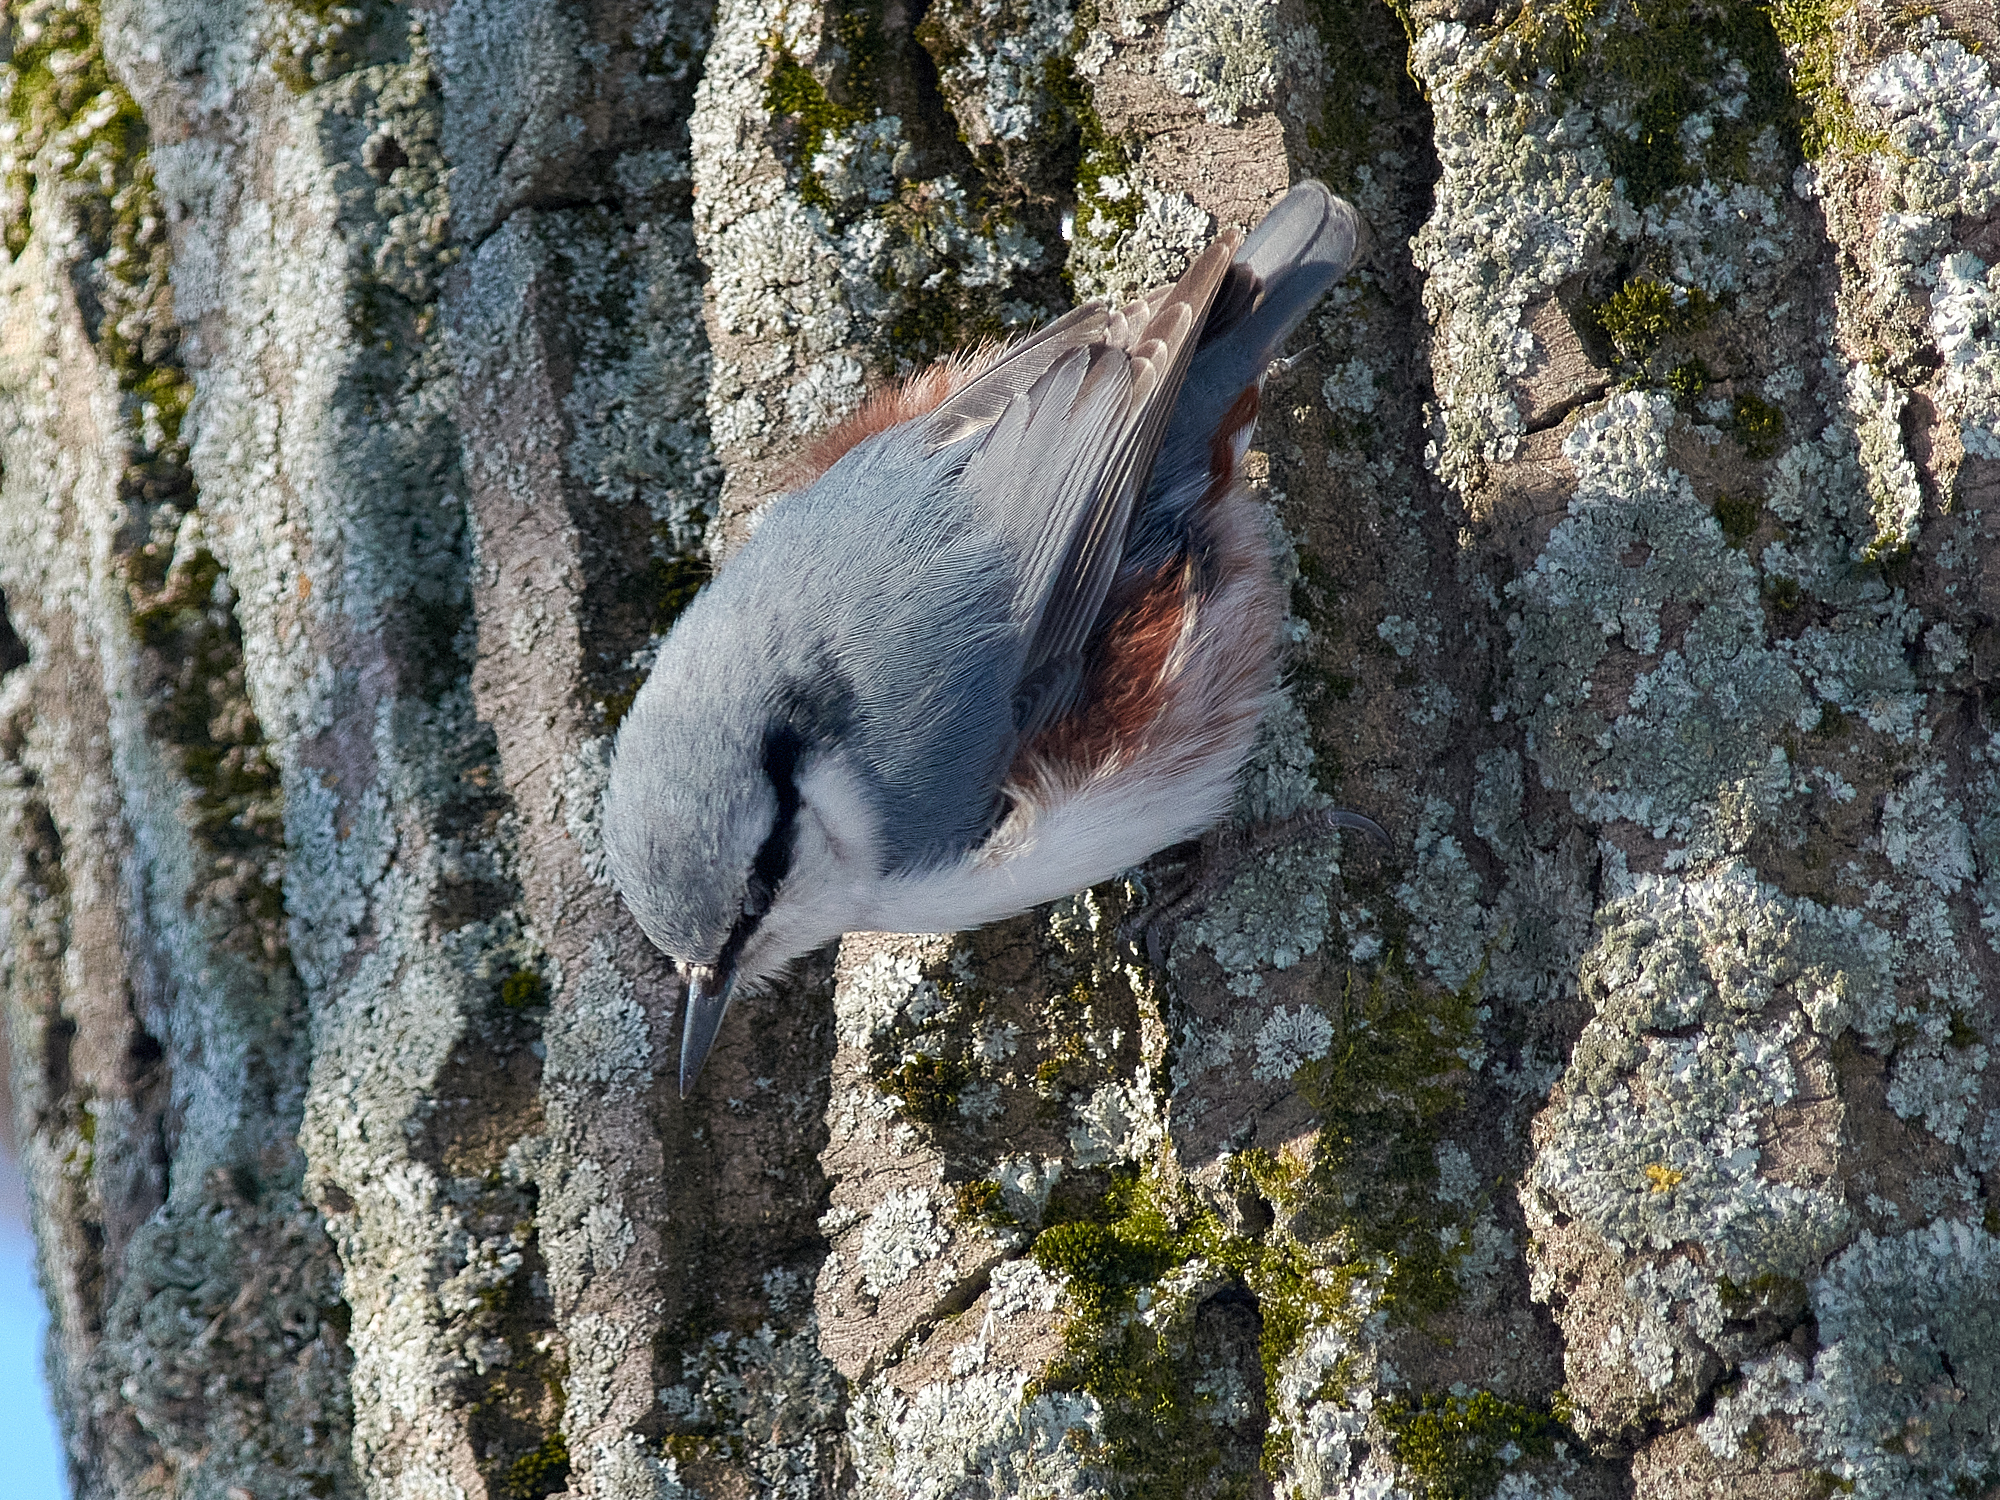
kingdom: Animalia
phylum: Chordata
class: Aves
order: Passeriformes
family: Sittidae
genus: Sitta
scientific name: Sitta europaea
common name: Eurasian nuthatch
